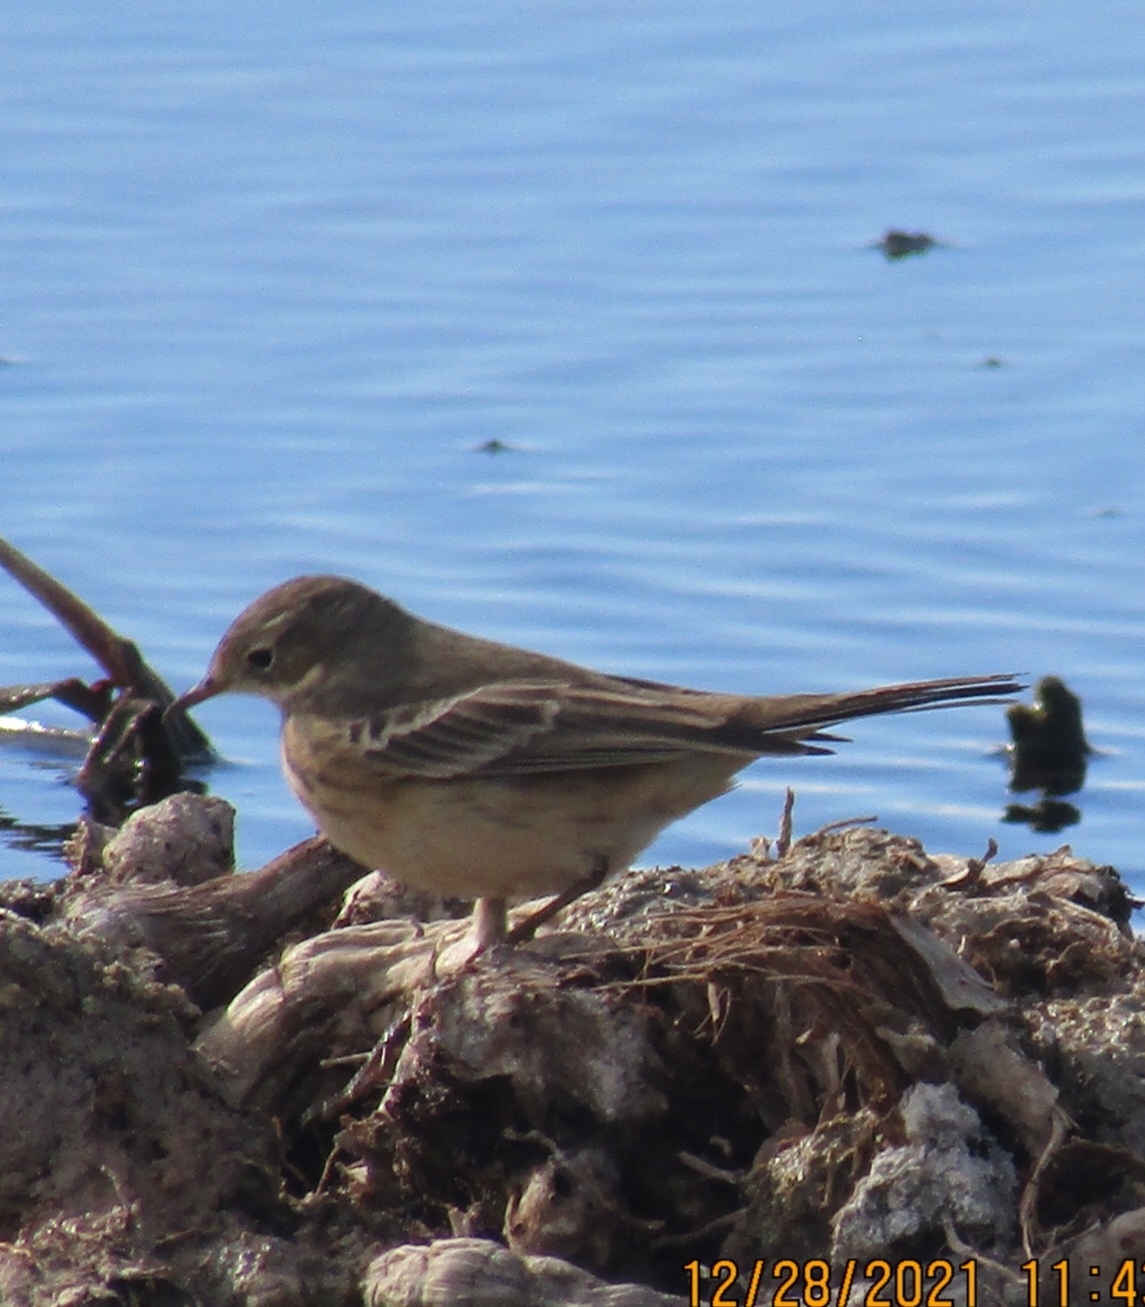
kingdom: Animalia
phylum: Chordata
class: Aves
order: Passeriformes
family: Motacillidae
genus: Anthus
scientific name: Anthus rubescens
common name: Buff-bellied pipit
